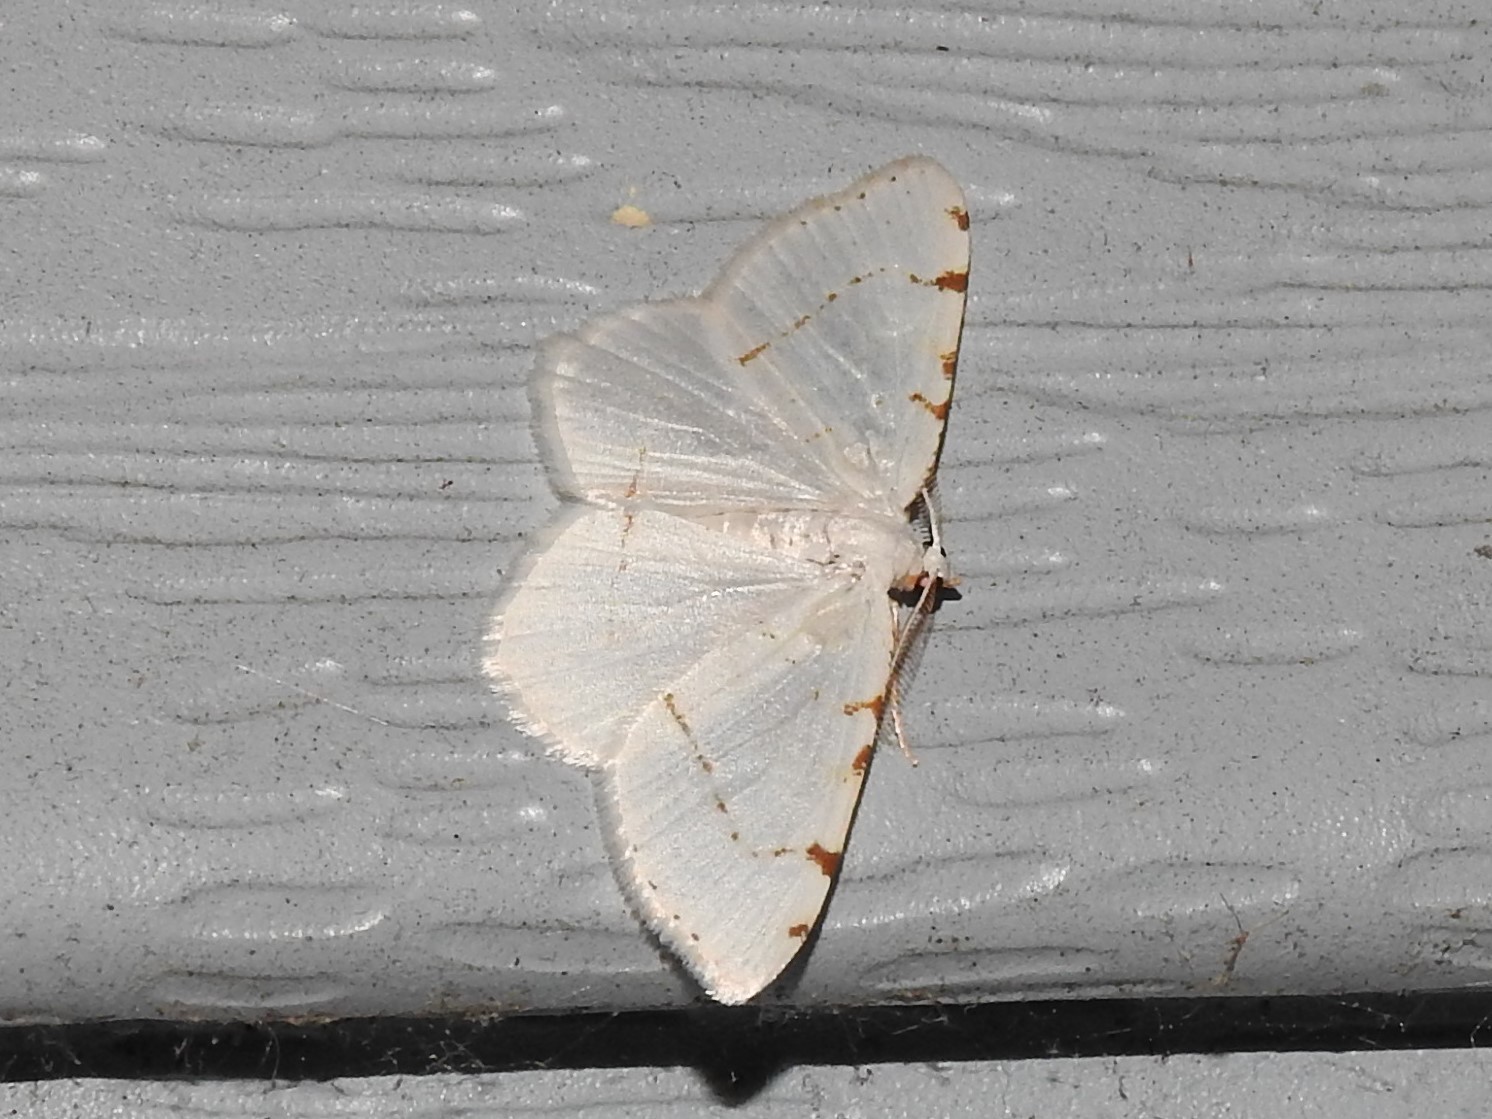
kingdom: Animalia
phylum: Arthropoda
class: Insecta
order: Lepidoptera
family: Geometridae
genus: Macaria
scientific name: Macaria pustularia
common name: Lesser maple spanworm moth
